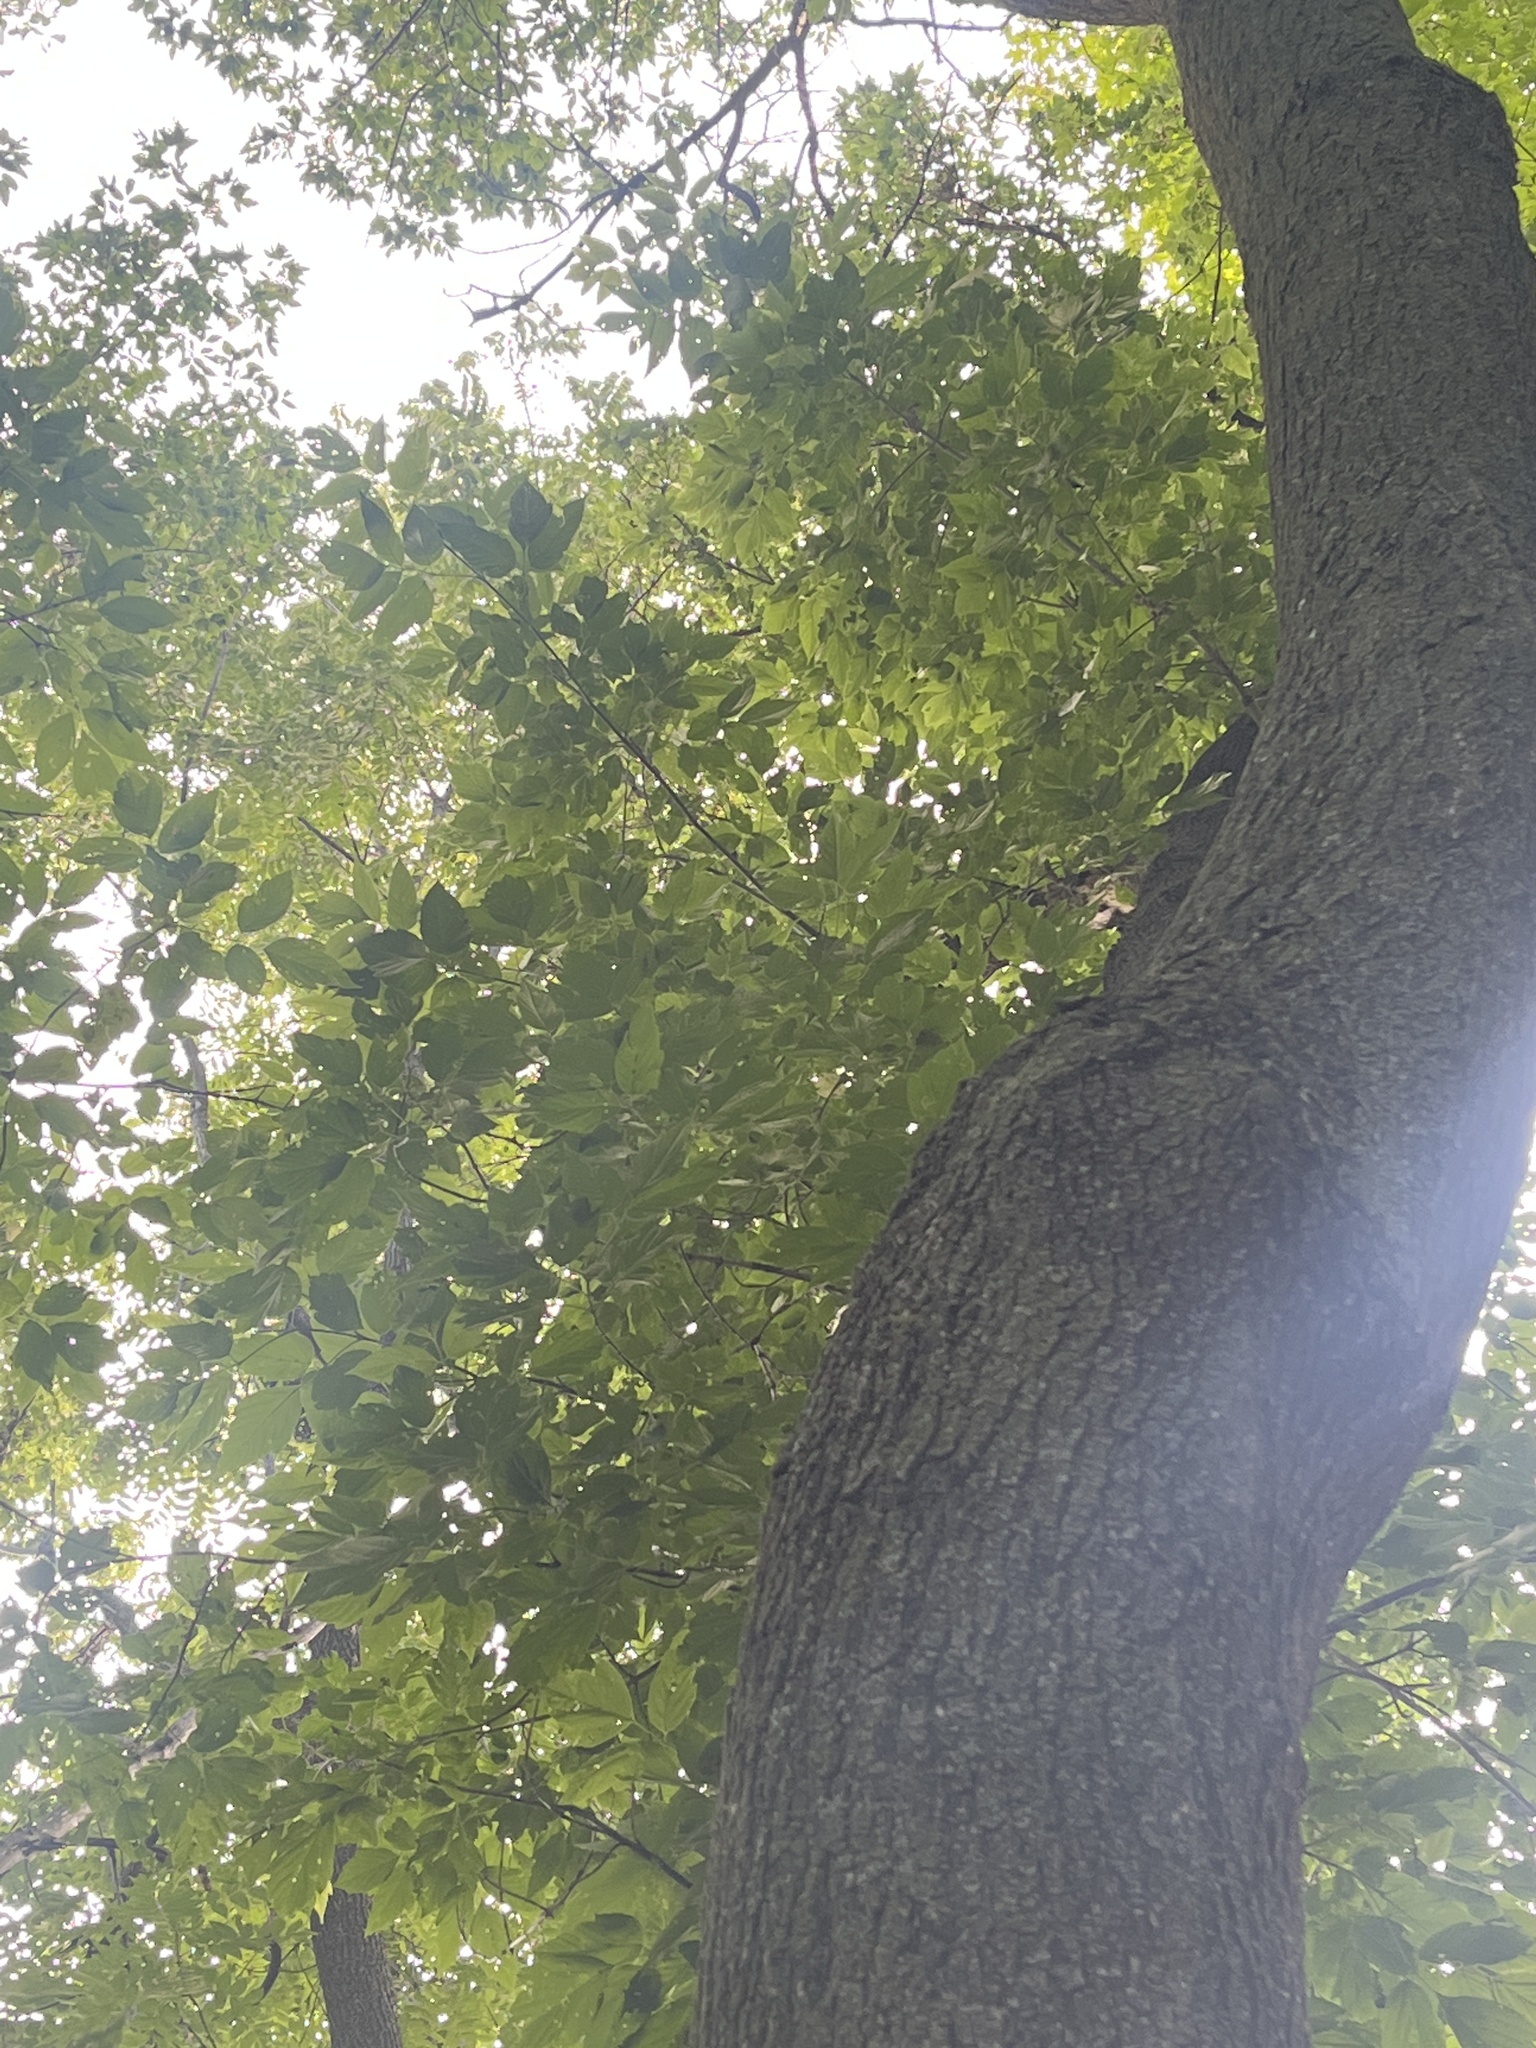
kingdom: Plantae
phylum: Tracheophyta
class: Magnoliopsida
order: Sapindales
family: Sapindaceae
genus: Acer
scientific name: Acer negundo
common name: Ashleaf maple
